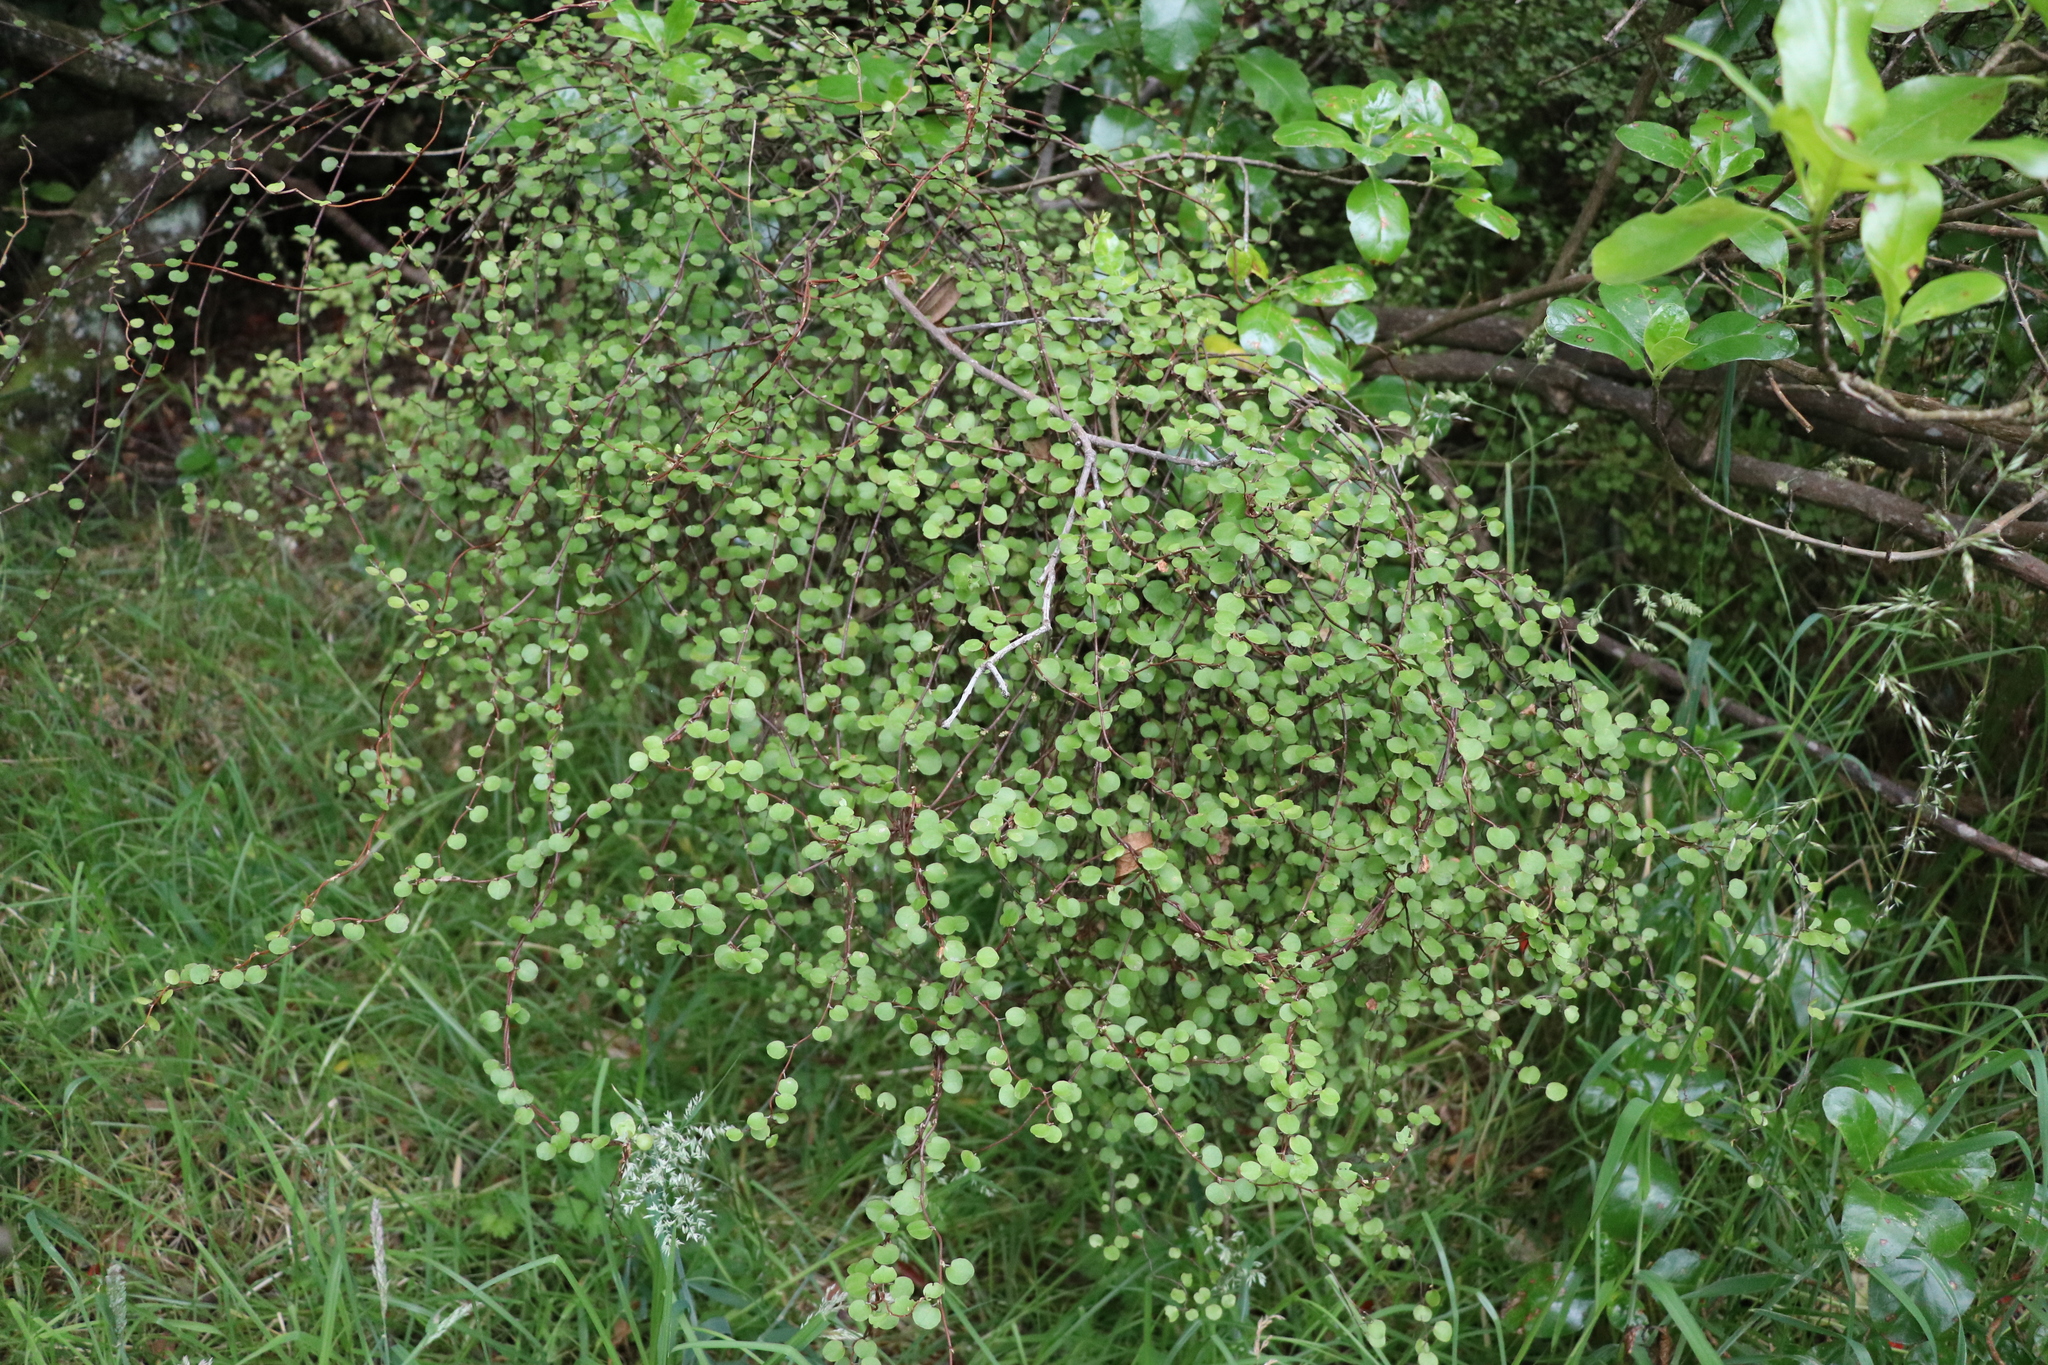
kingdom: Plantae
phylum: Tracheophyta
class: Magnoliopsida
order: Caryophyllales
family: Polygonaceae
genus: Muehlenbeckia
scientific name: Muehlenbeckia complexa
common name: Wireplant
